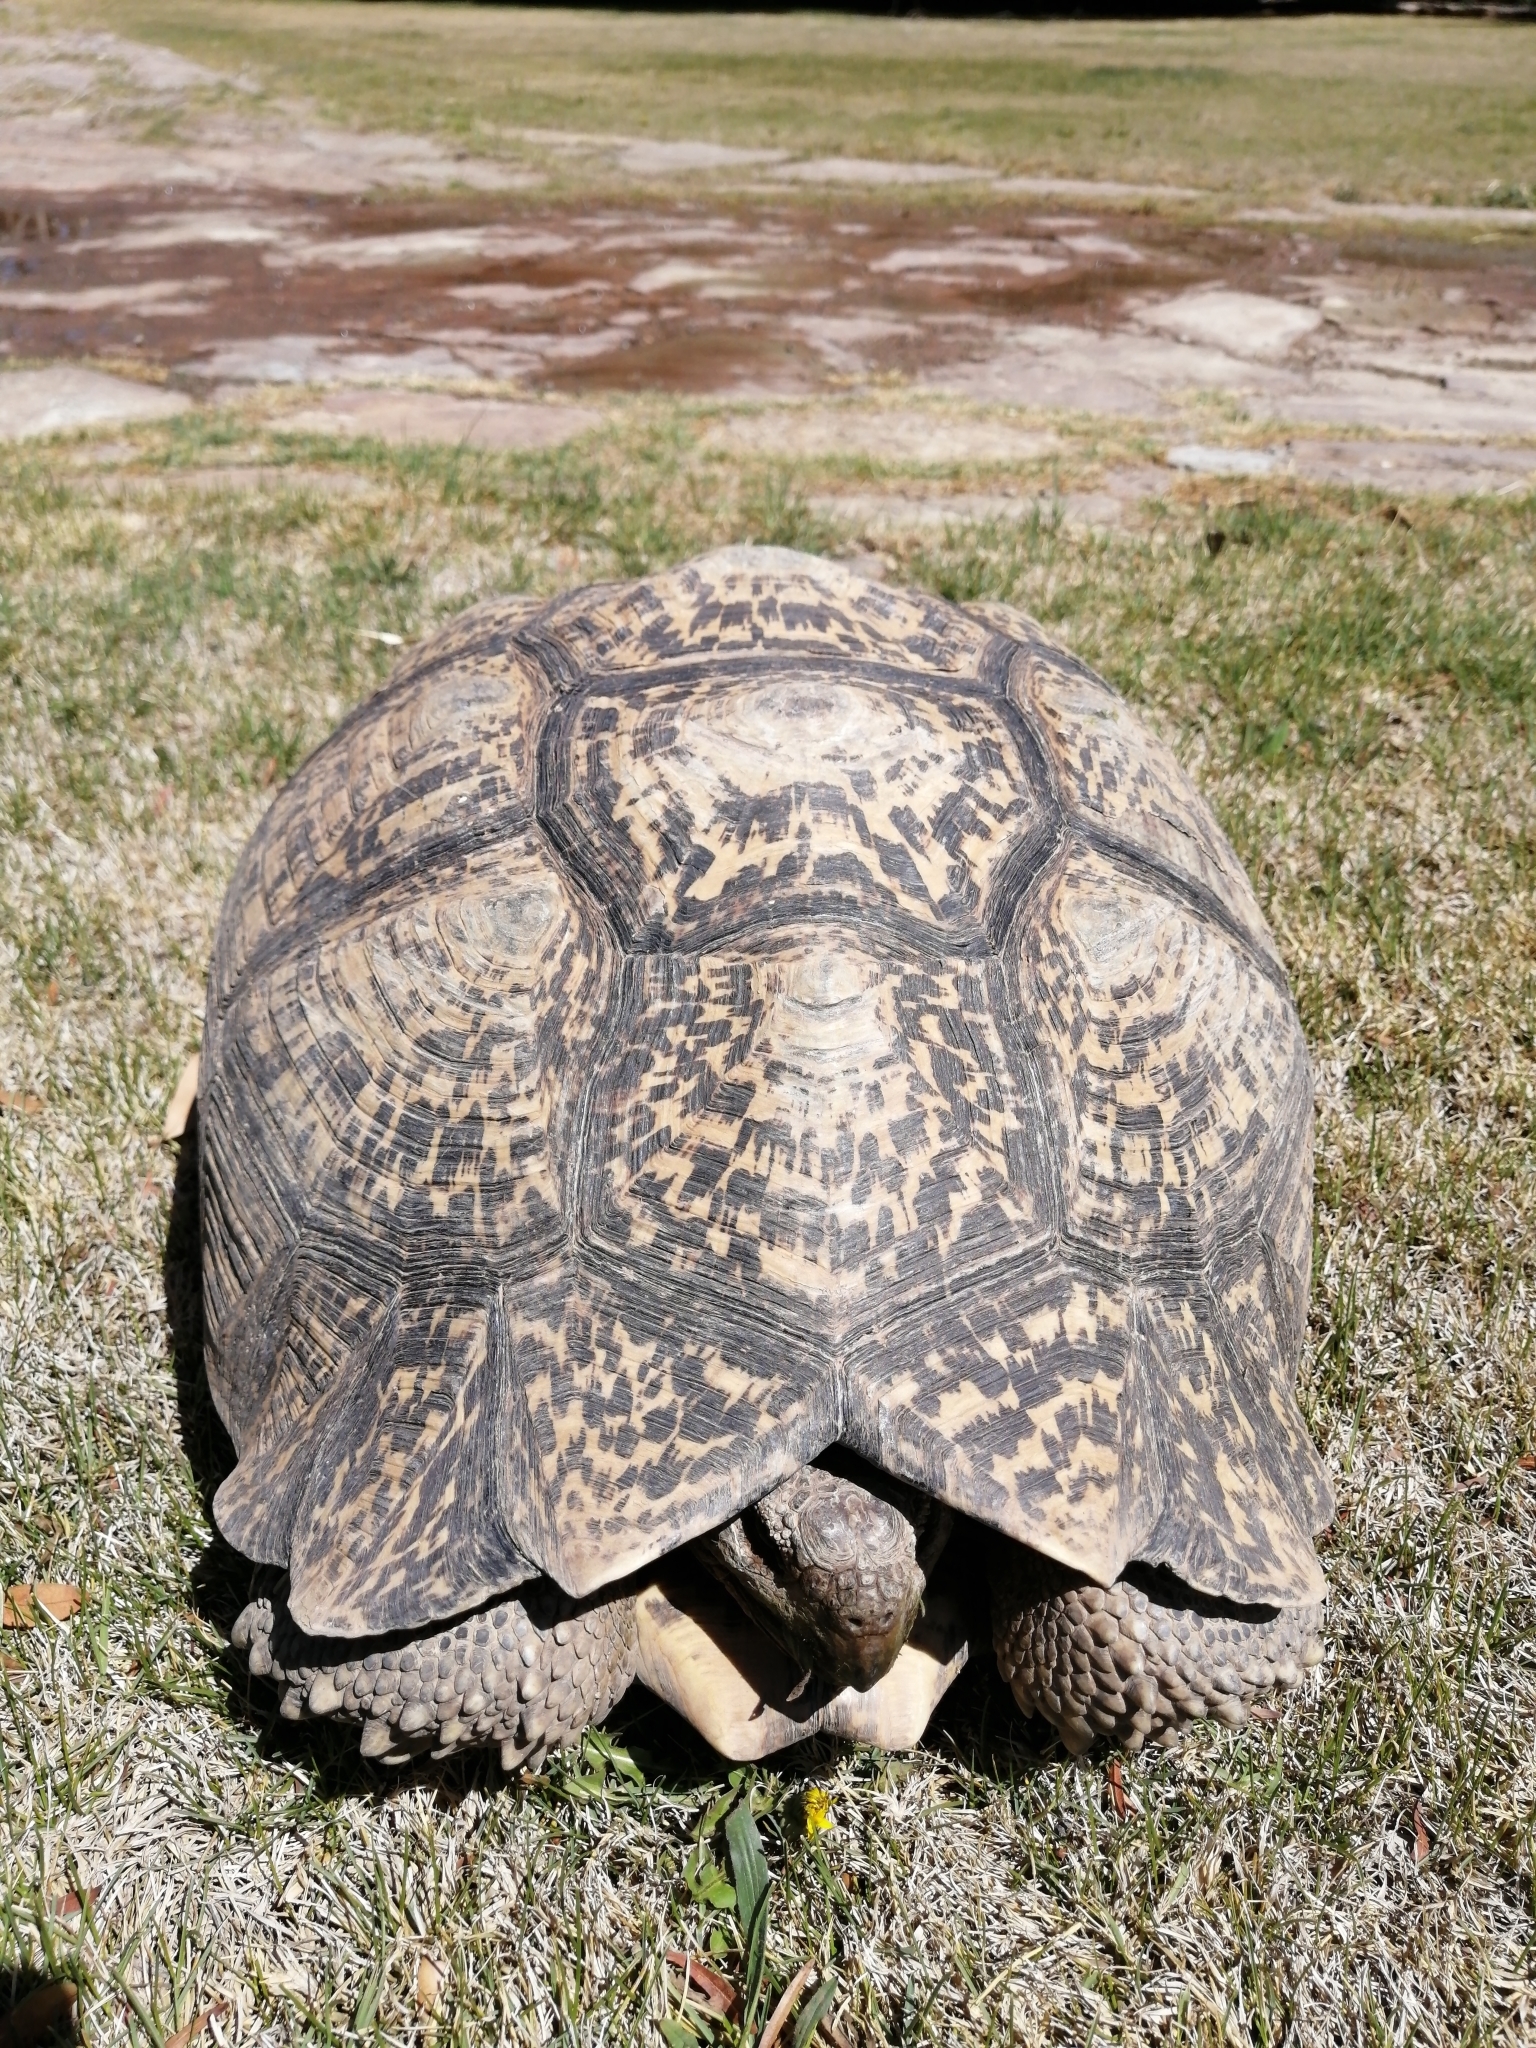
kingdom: Animalia
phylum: Chordata
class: Testudines
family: Testudinidae
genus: Stigmochelys
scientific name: Stigmochelys pardalis
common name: Leopard tortoise
